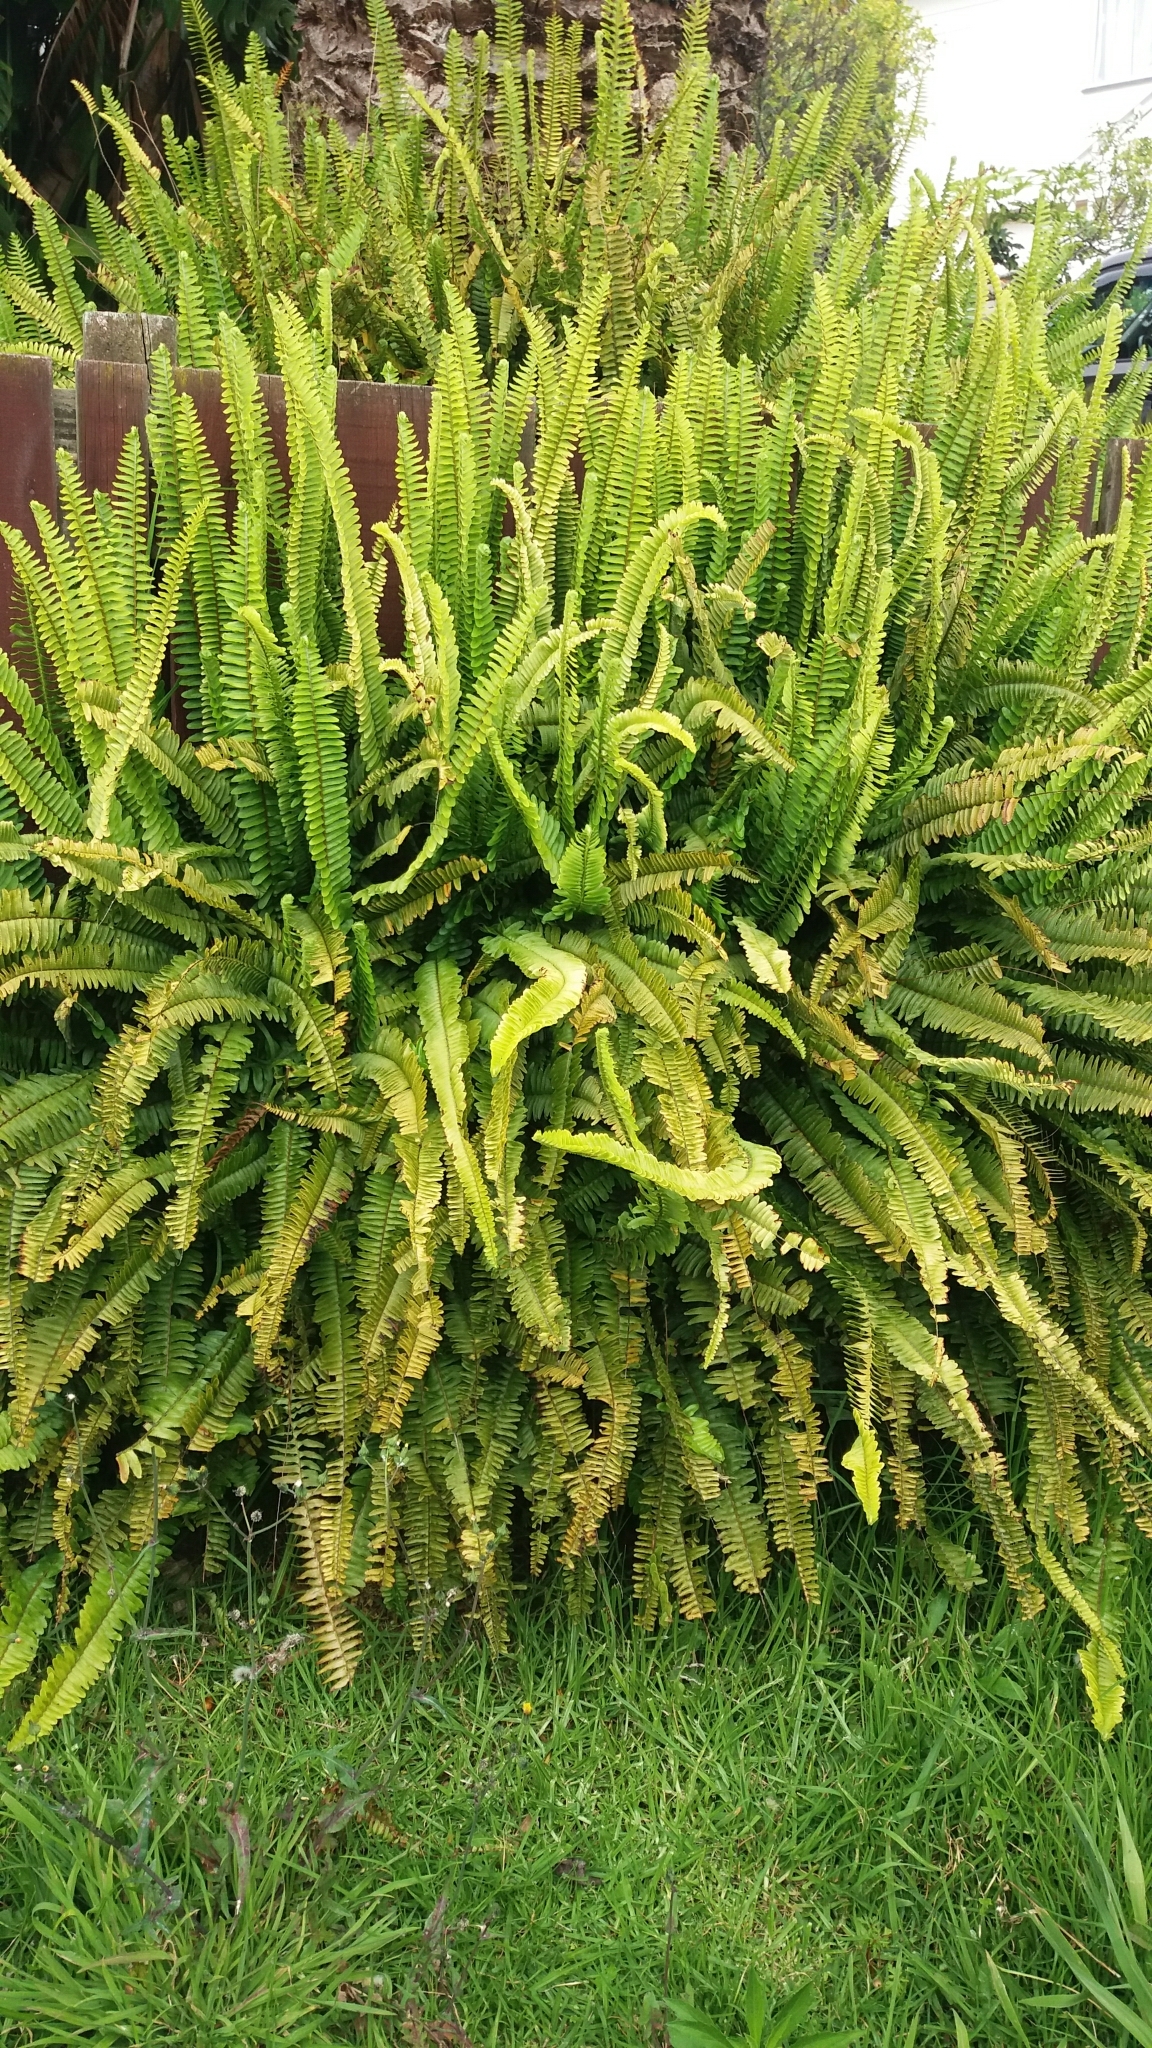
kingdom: Plantae
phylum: Tracheophyta
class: Polypodiopsida
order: Polypodiales
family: Nephrolepidaceae
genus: Nephrolepis
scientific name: Nephrolepis cordifolia
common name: Narrow swordfern
